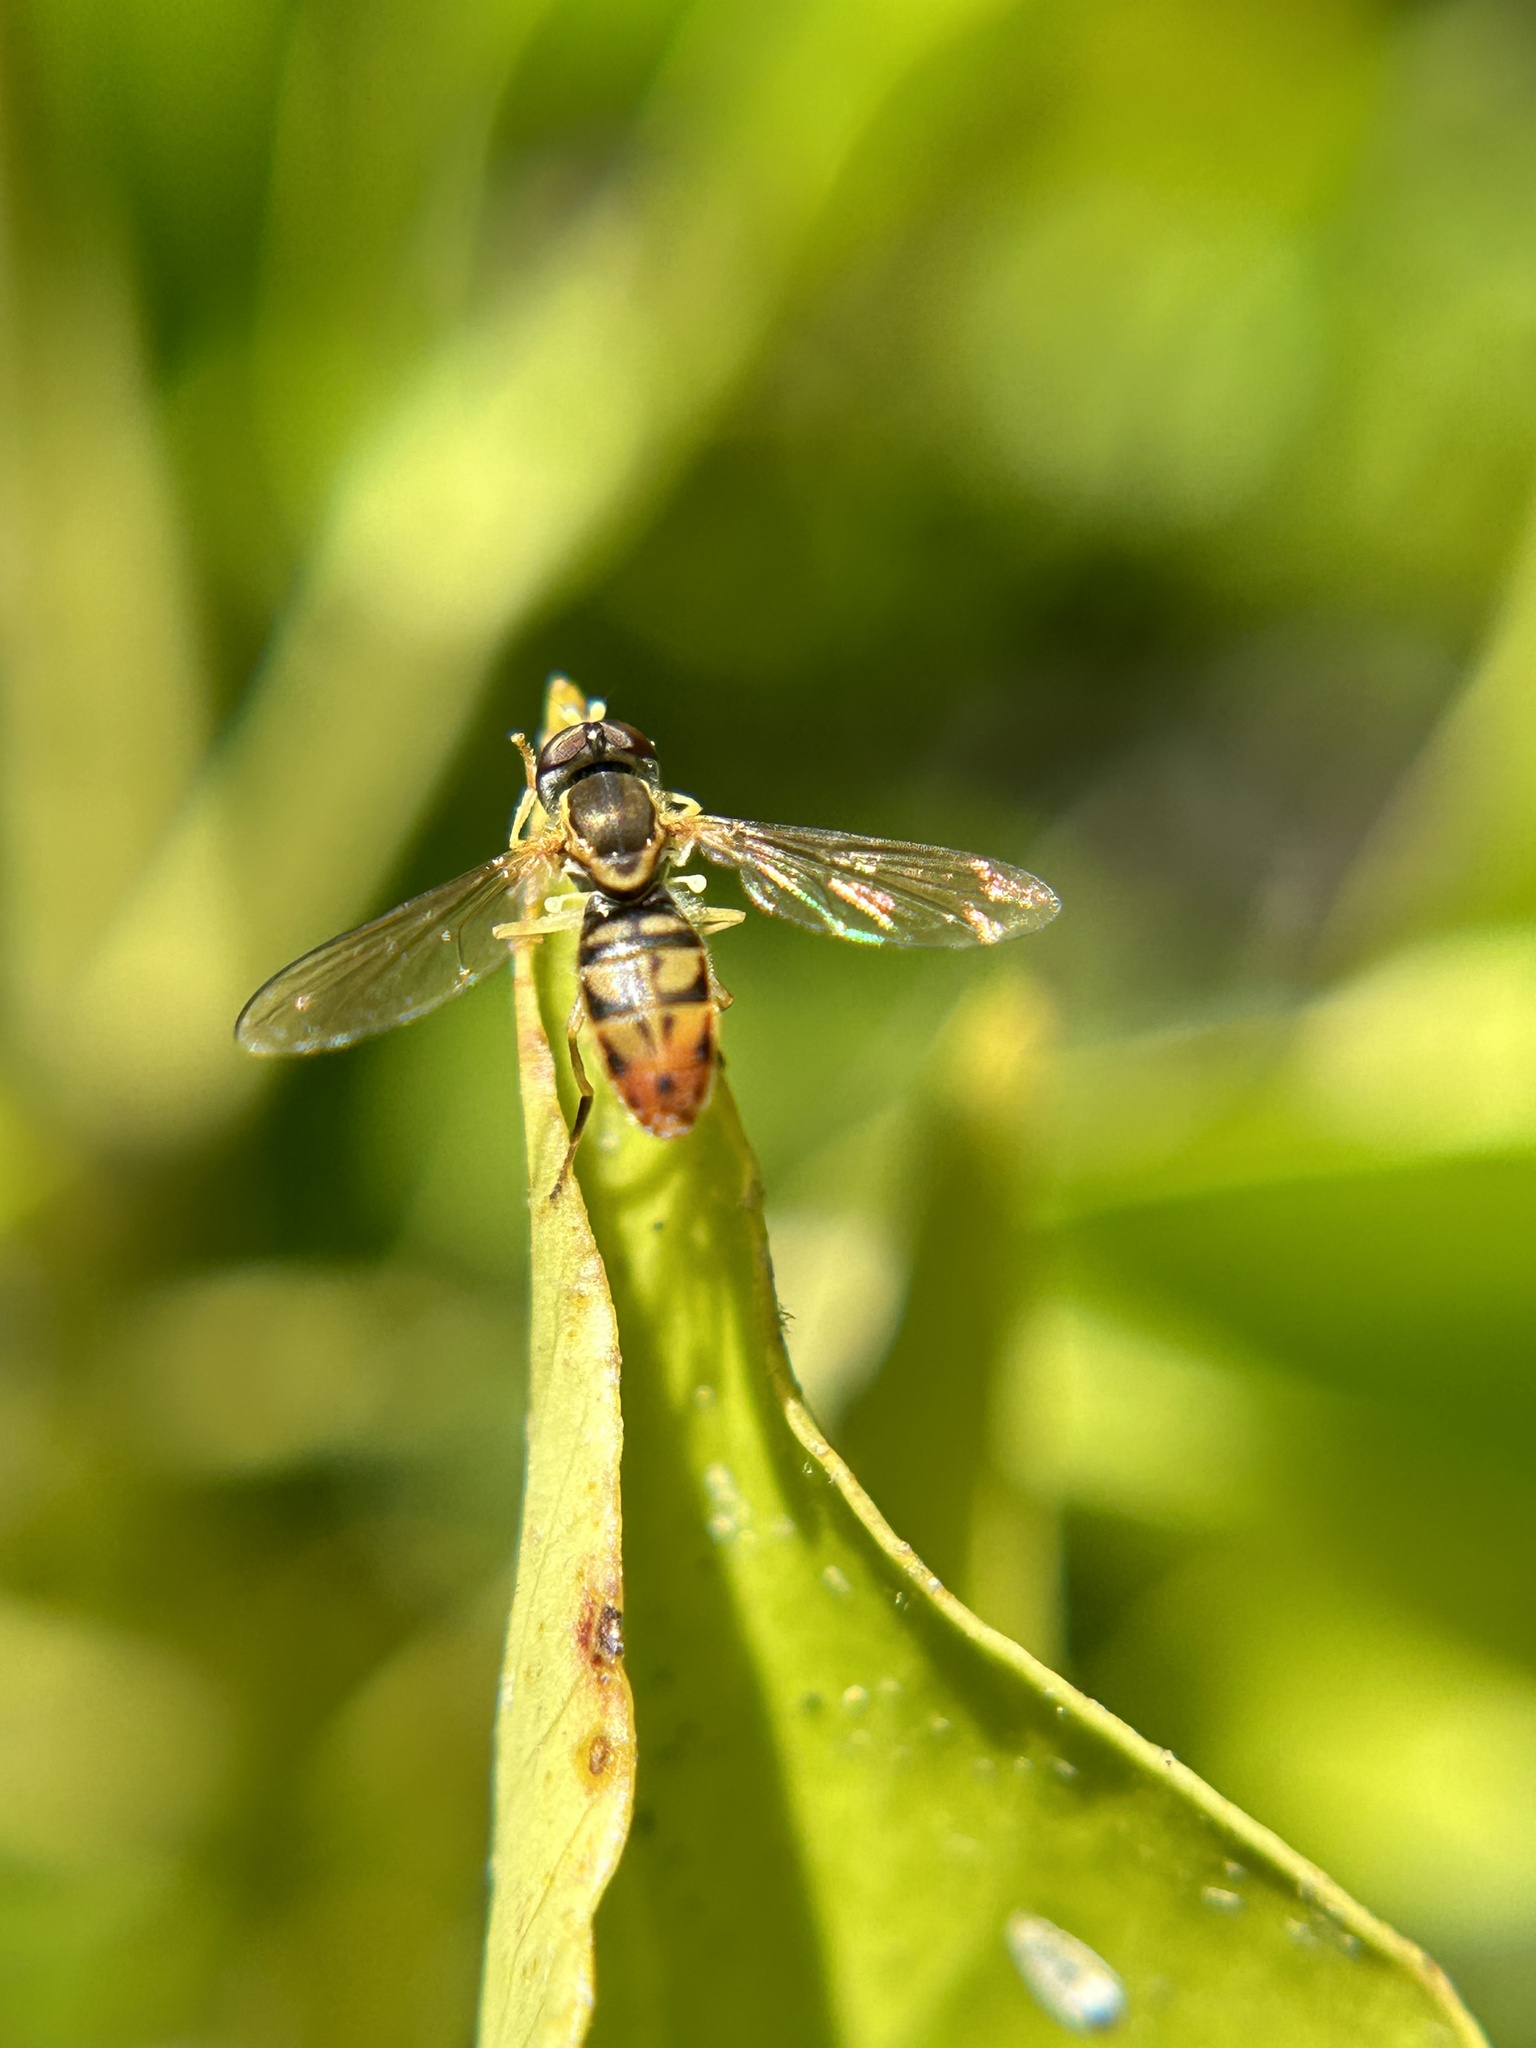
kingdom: Animalia
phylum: Arthropoda
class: Insecta
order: Diptera
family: Syrphidae
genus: Toxomerus
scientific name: Toxomerus marginatus
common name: Syrphid fly
